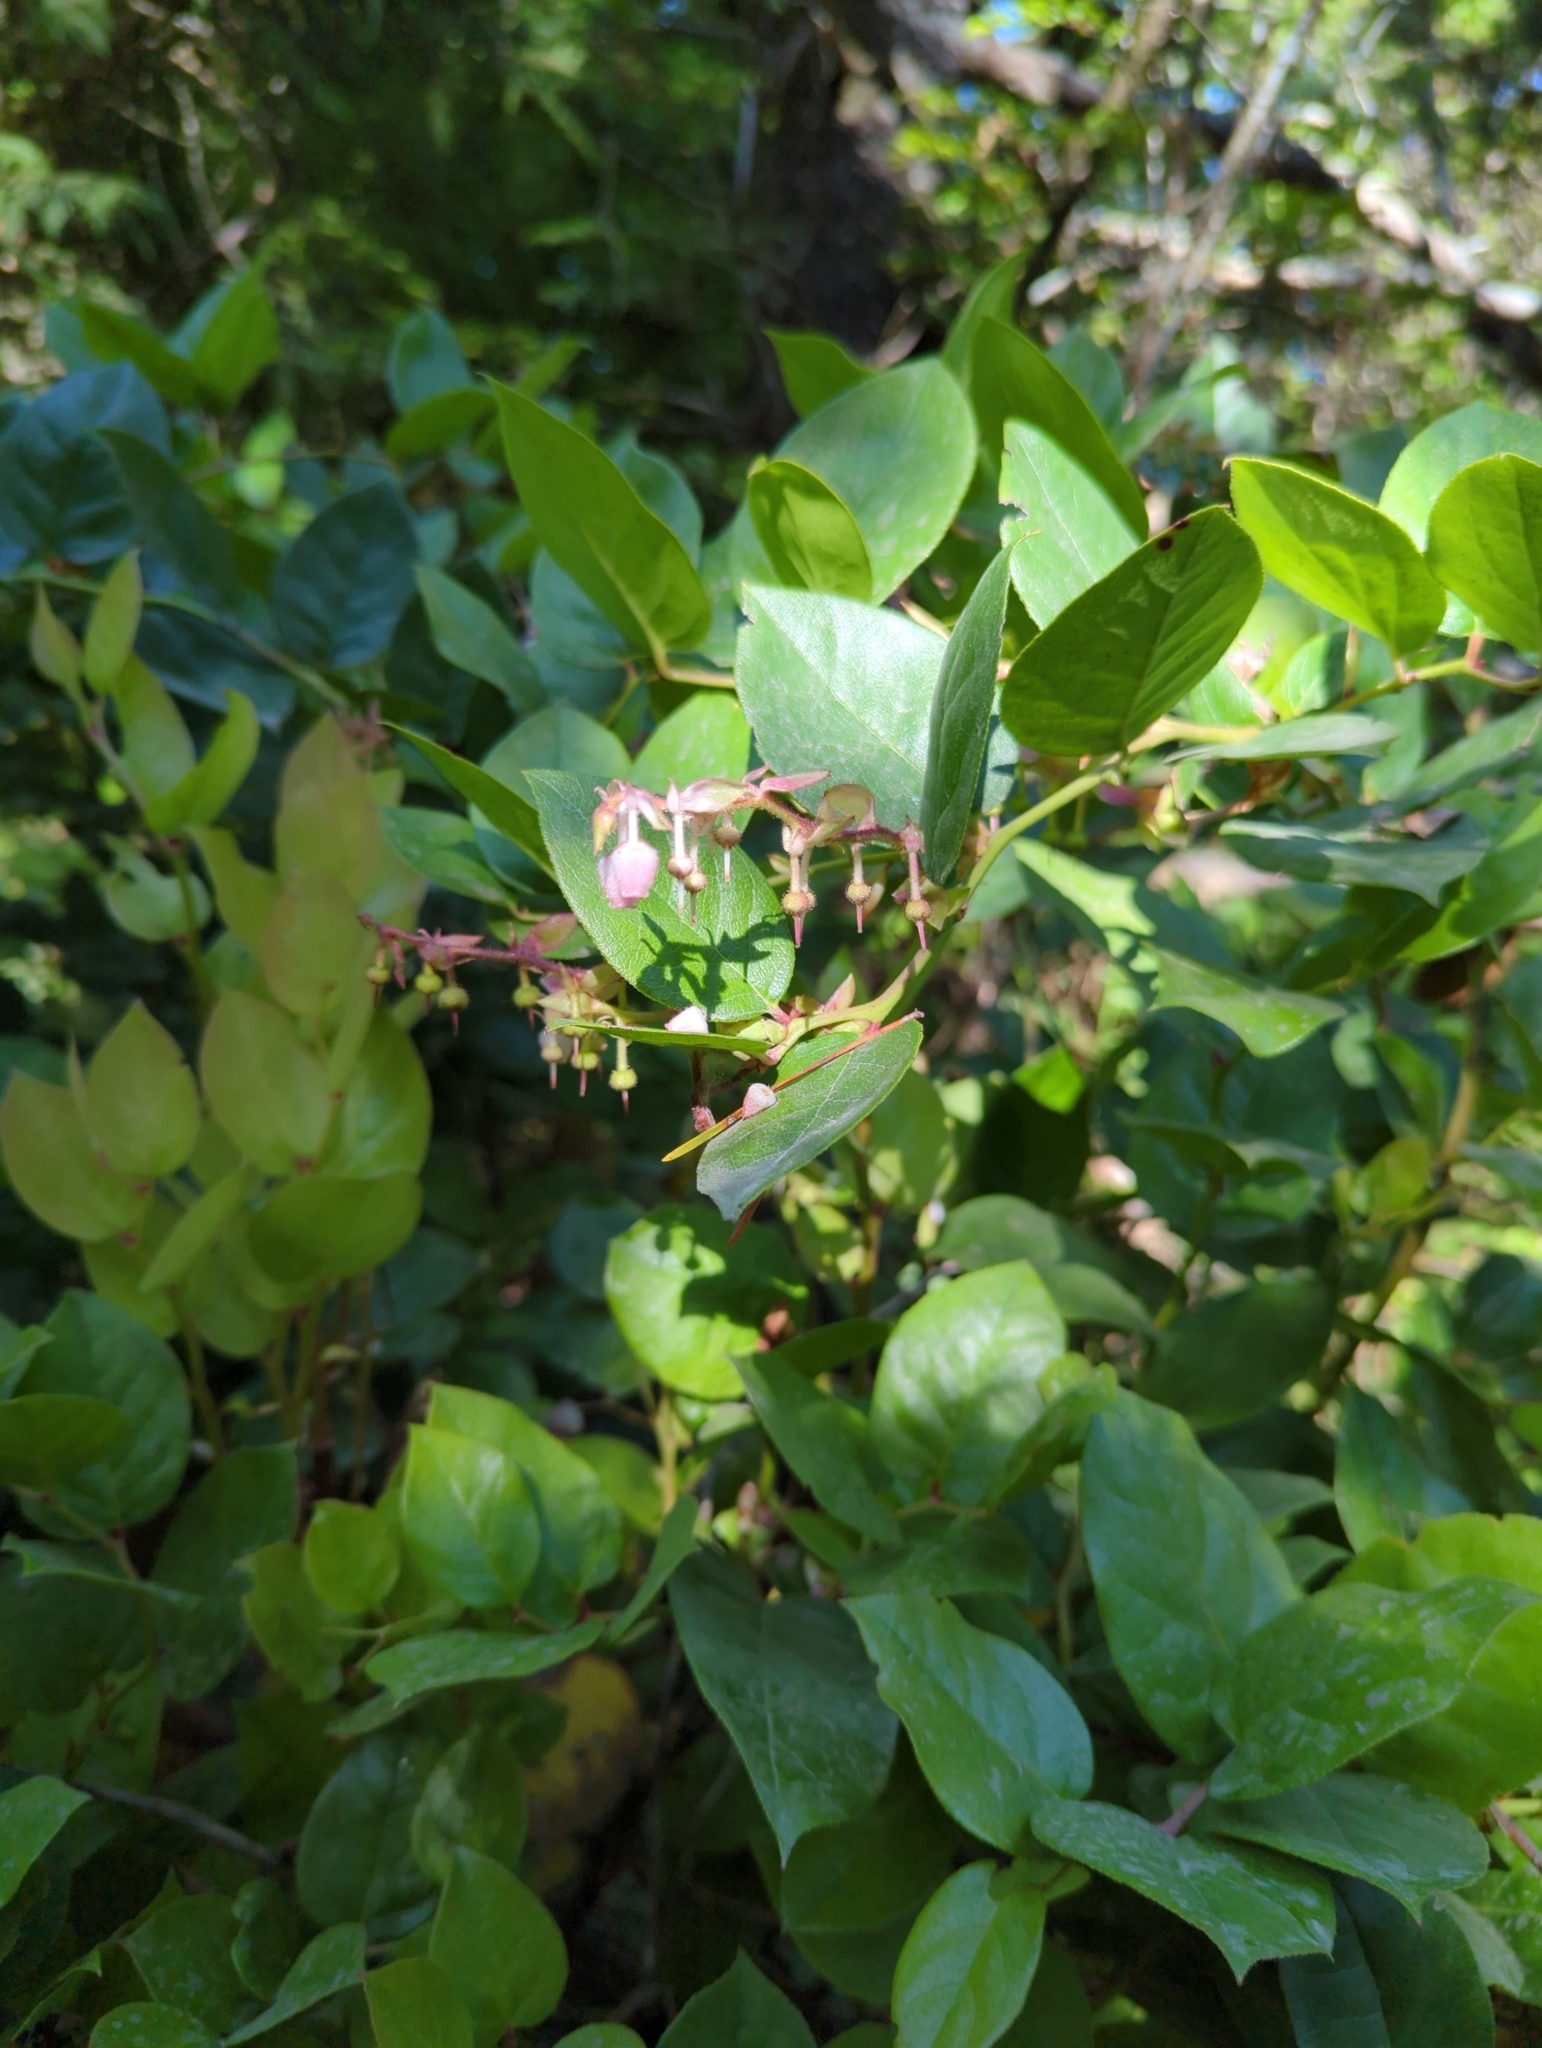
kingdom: Plantae
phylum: Tracheophyta
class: Magnoliopsida
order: Ericales
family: Ericaceae
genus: Gaultheria
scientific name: Gaultheria shallon
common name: Shallon
